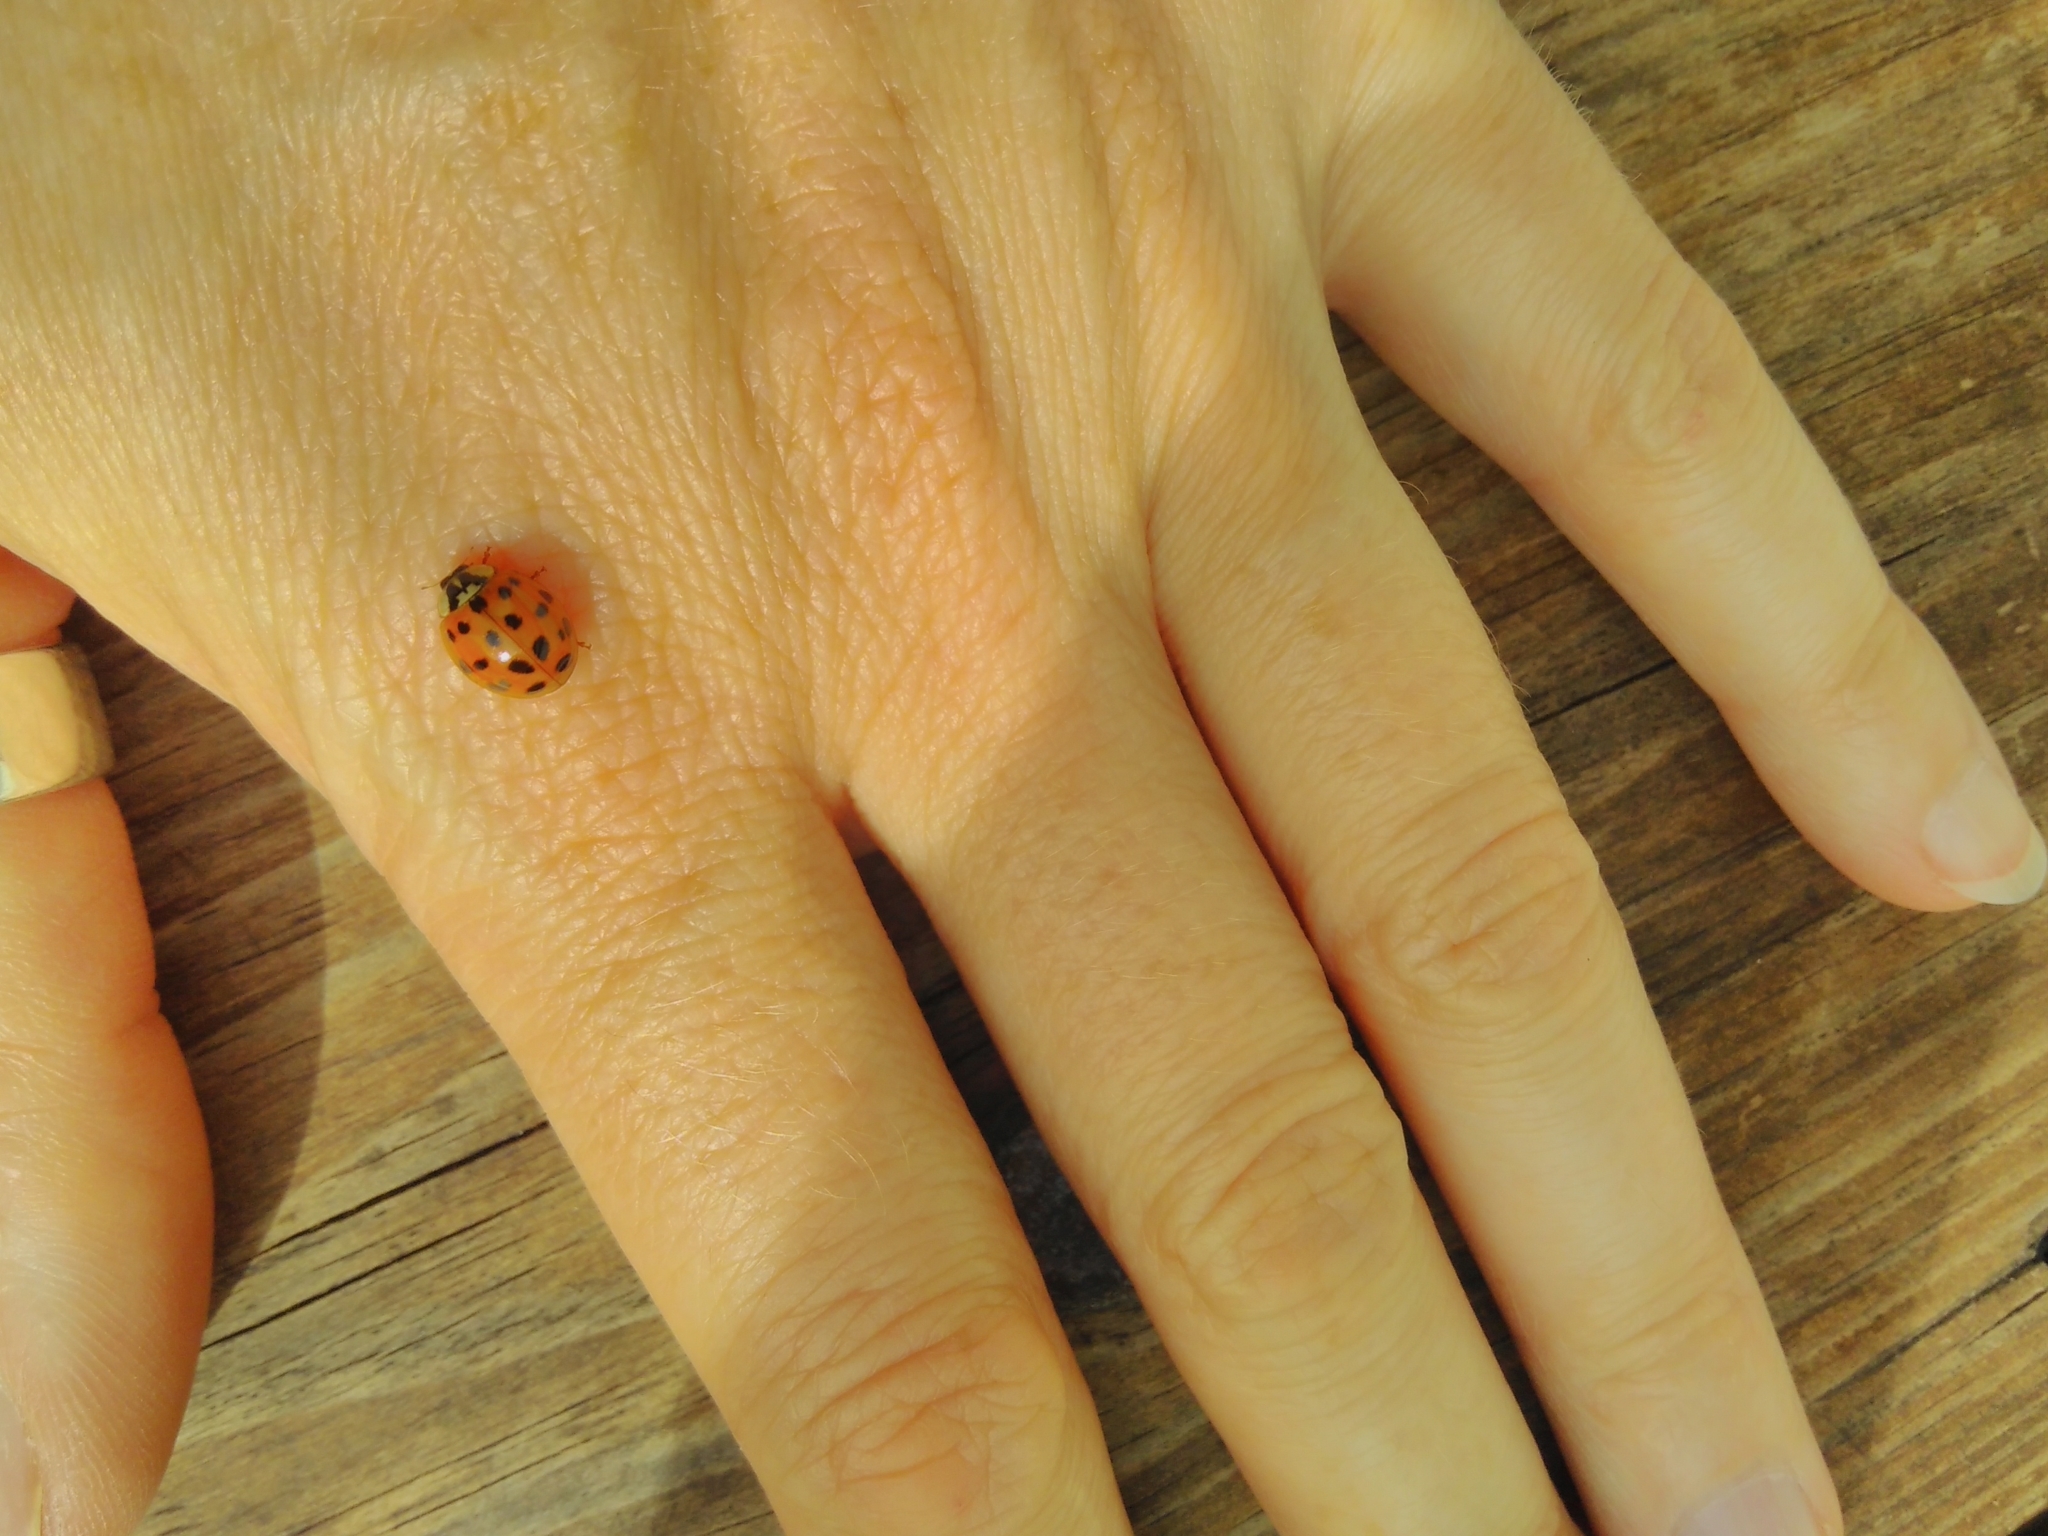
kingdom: Animalia
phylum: Arthropoda
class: Insecta
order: Coleoptera
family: Coccinellidae
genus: Harmonia
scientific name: Harmonia axyridis
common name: Harlequin ladybird
